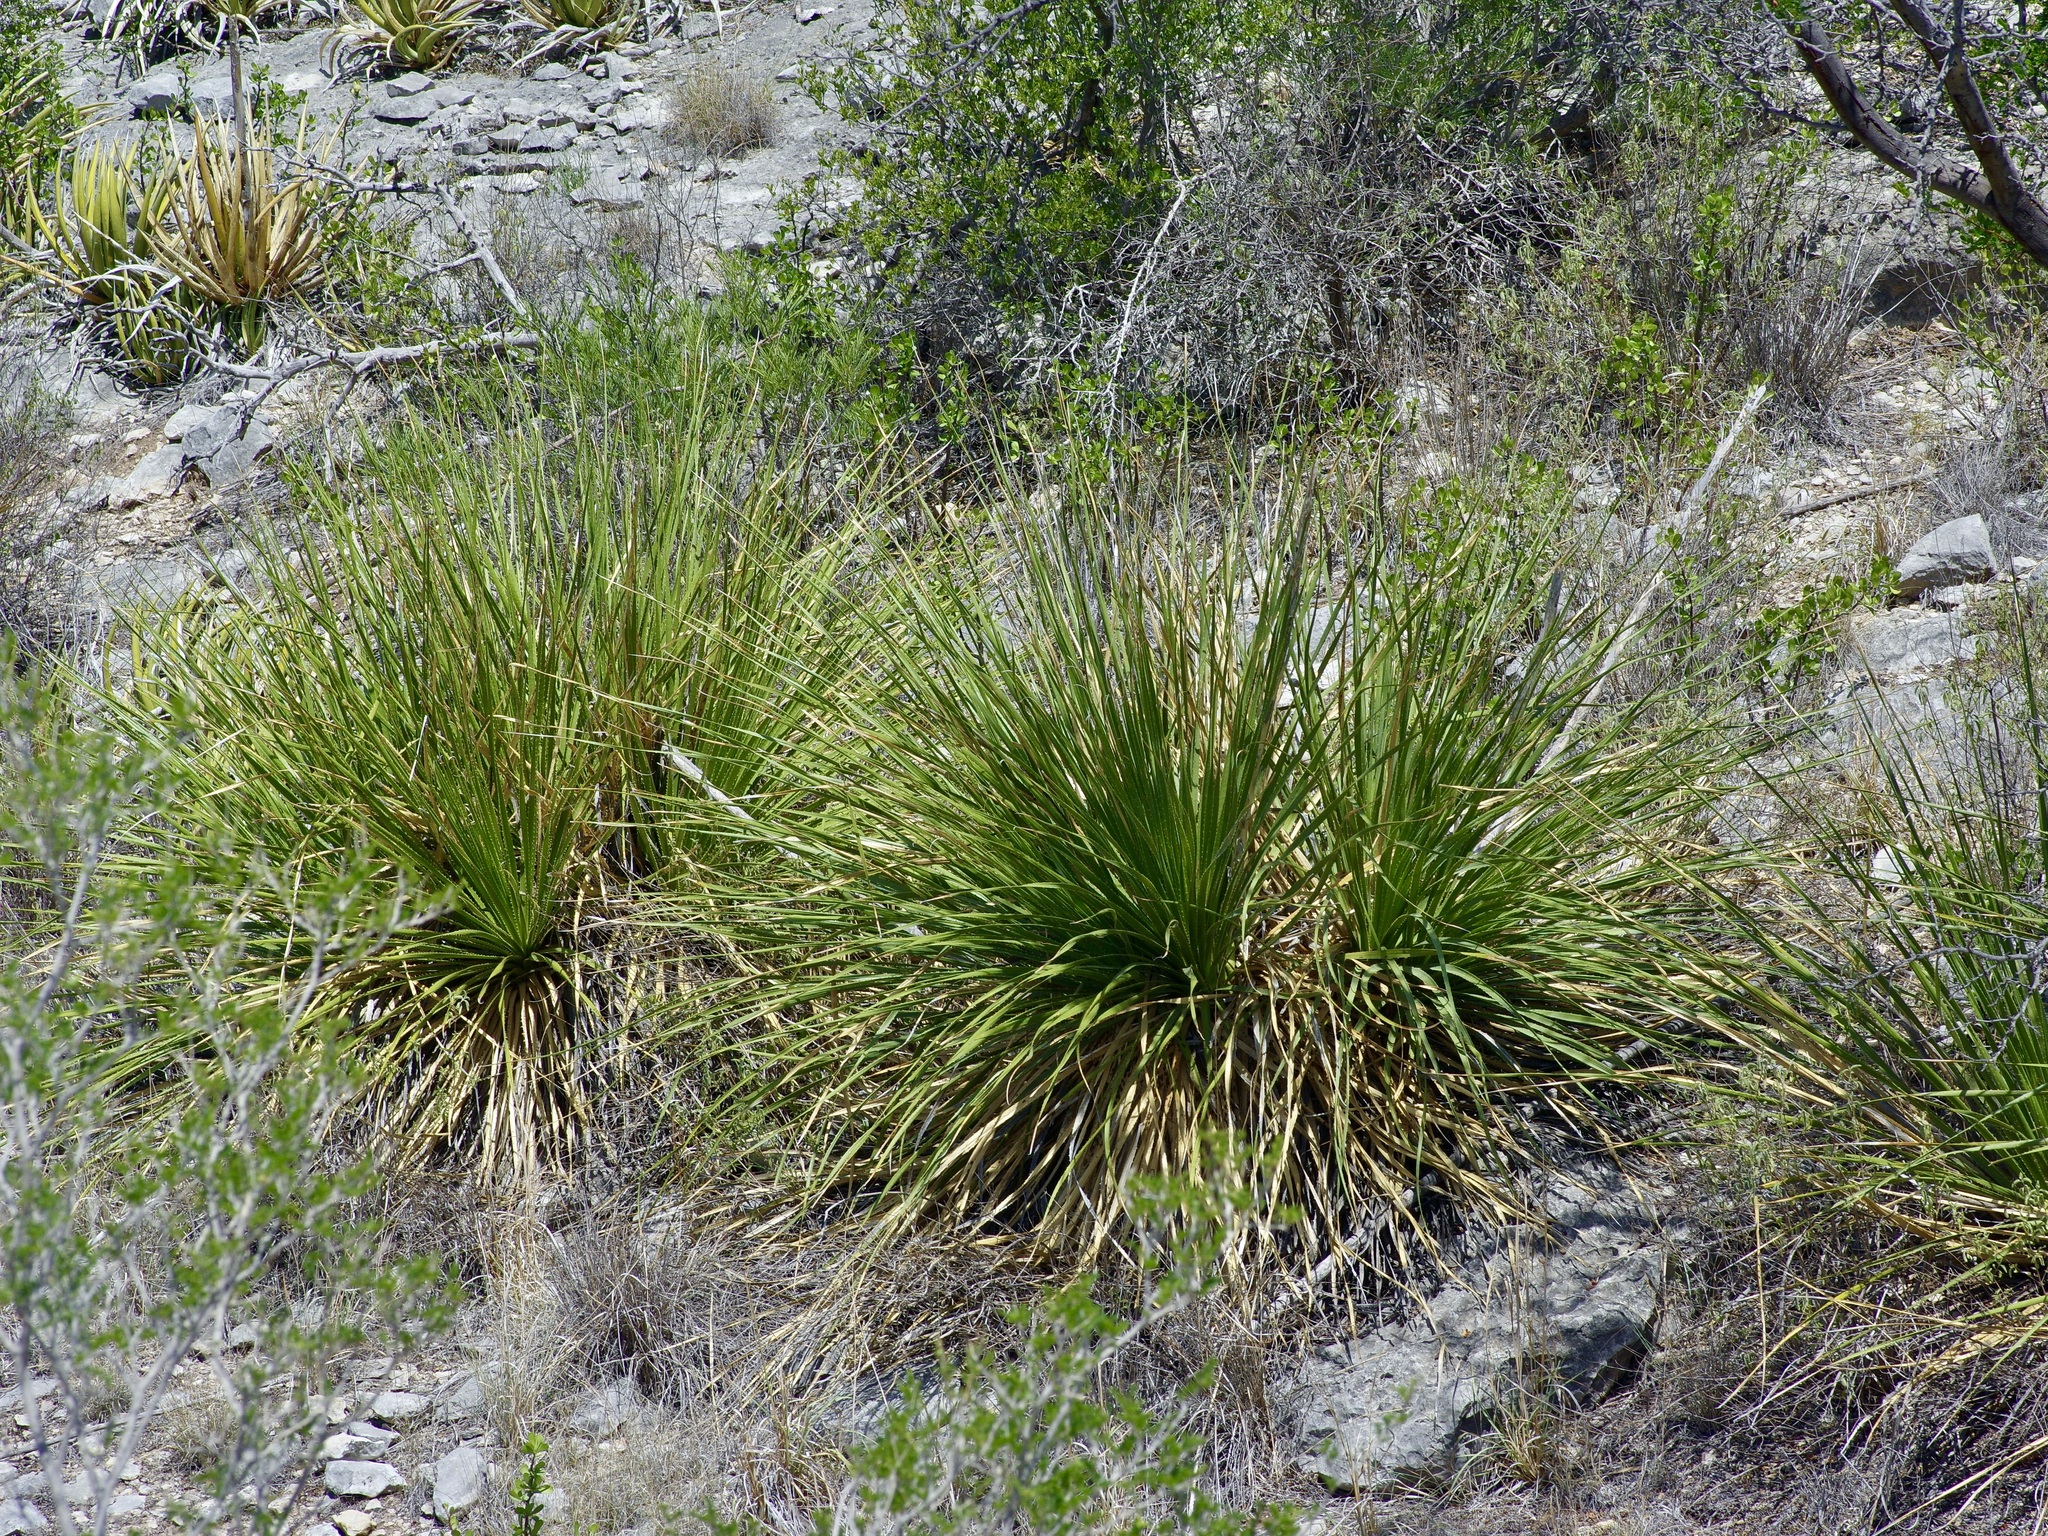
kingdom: Plantae
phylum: Tracheophyta
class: Liliopsida
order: Asparagales
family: Asparagaceae
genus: Dasylirion
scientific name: Dasylirion texanum
